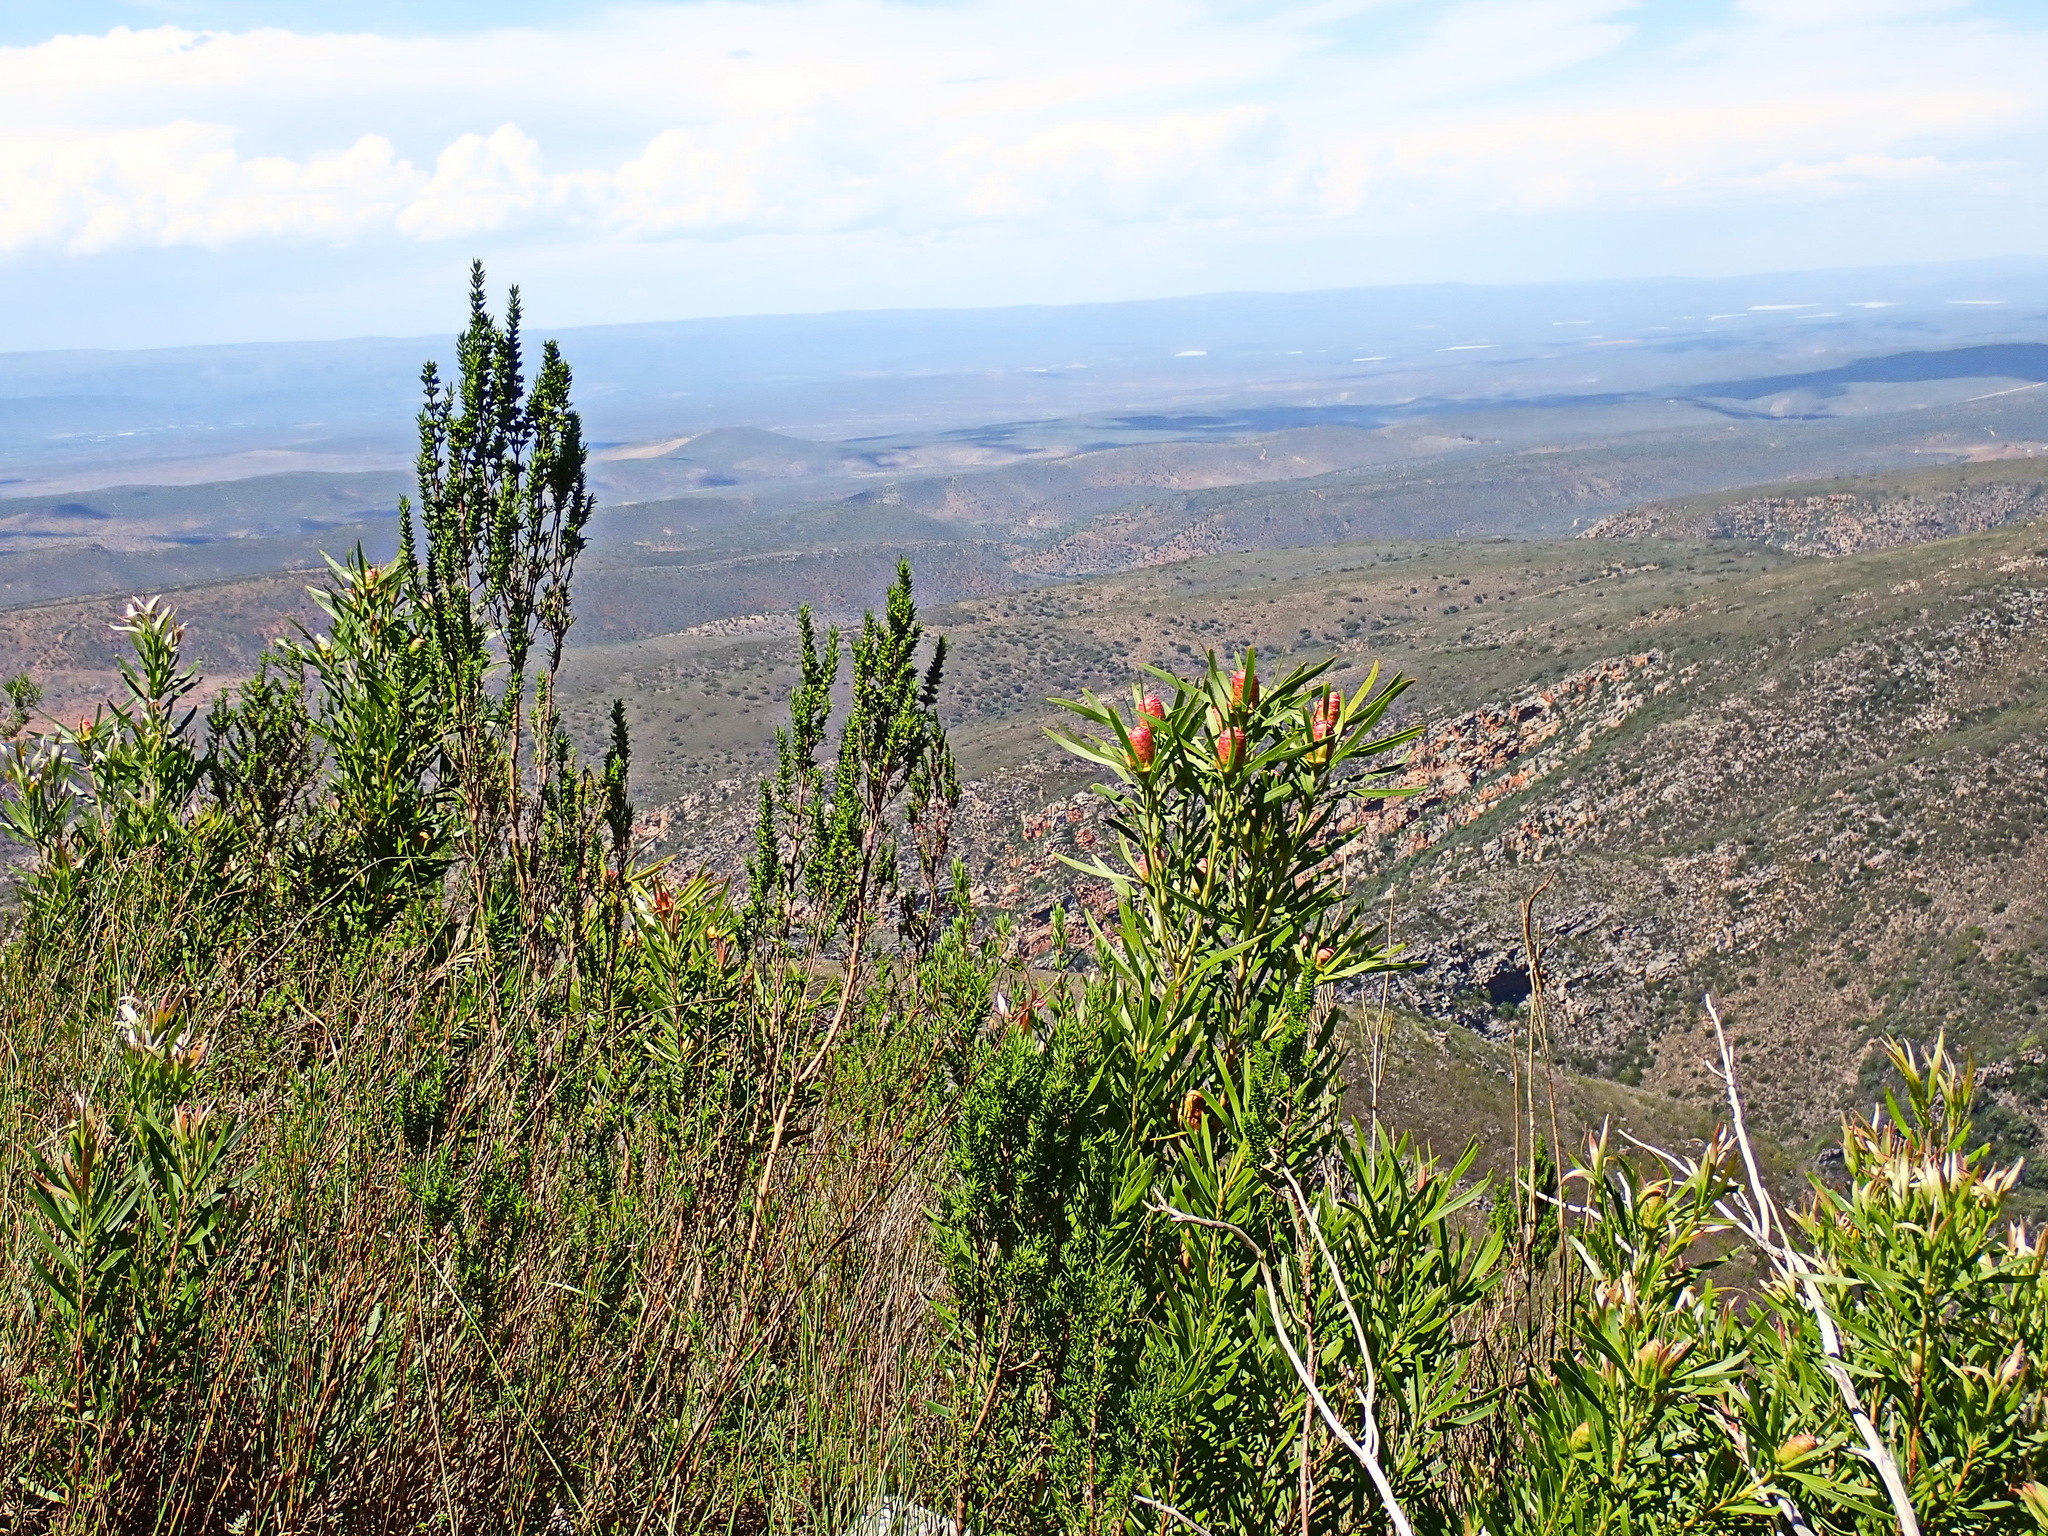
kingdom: Plantae
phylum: Tracheophyta
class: Magnoliopsida
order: Proteales
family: Proteaceae
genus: Leucadendron
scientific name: Leucadendron eucalyptifolium
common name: Gum-leaved conebush
